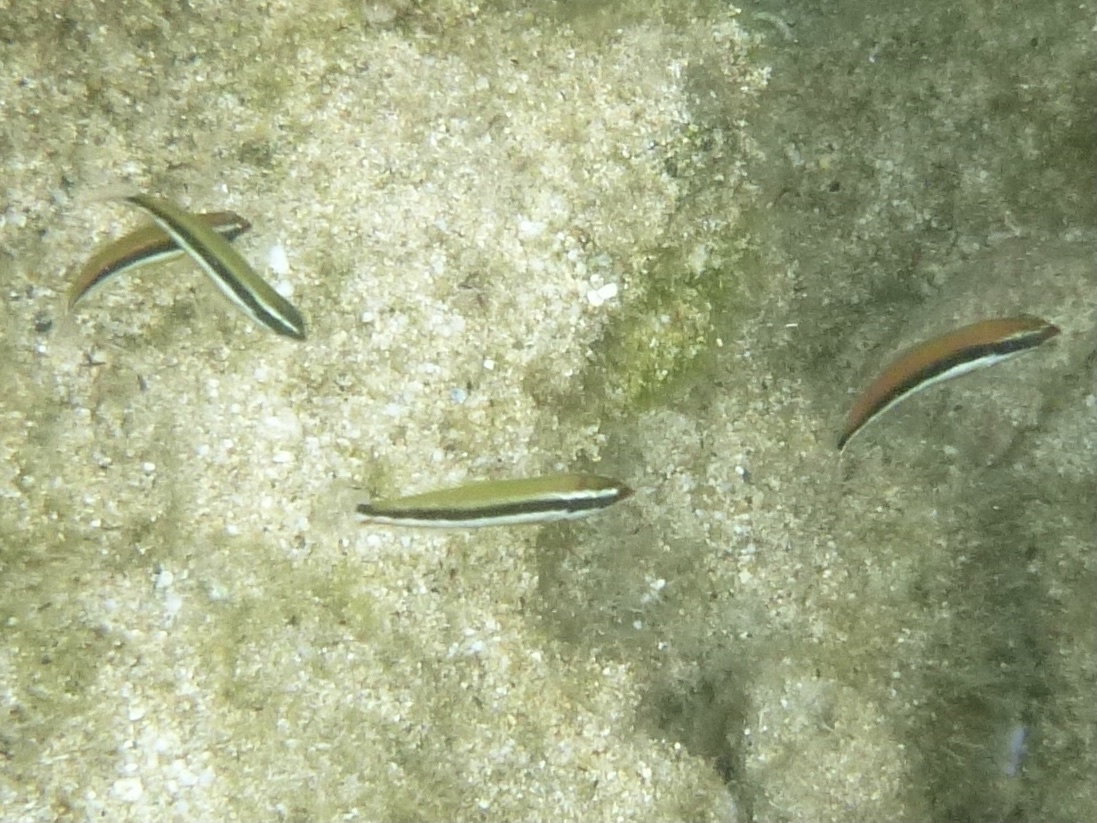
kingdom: Animalia
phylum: Chordata
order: Perciformes
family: Labridae
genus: Thalassoma
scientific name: Thalassoma duperrey
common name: Saddle wrasse
